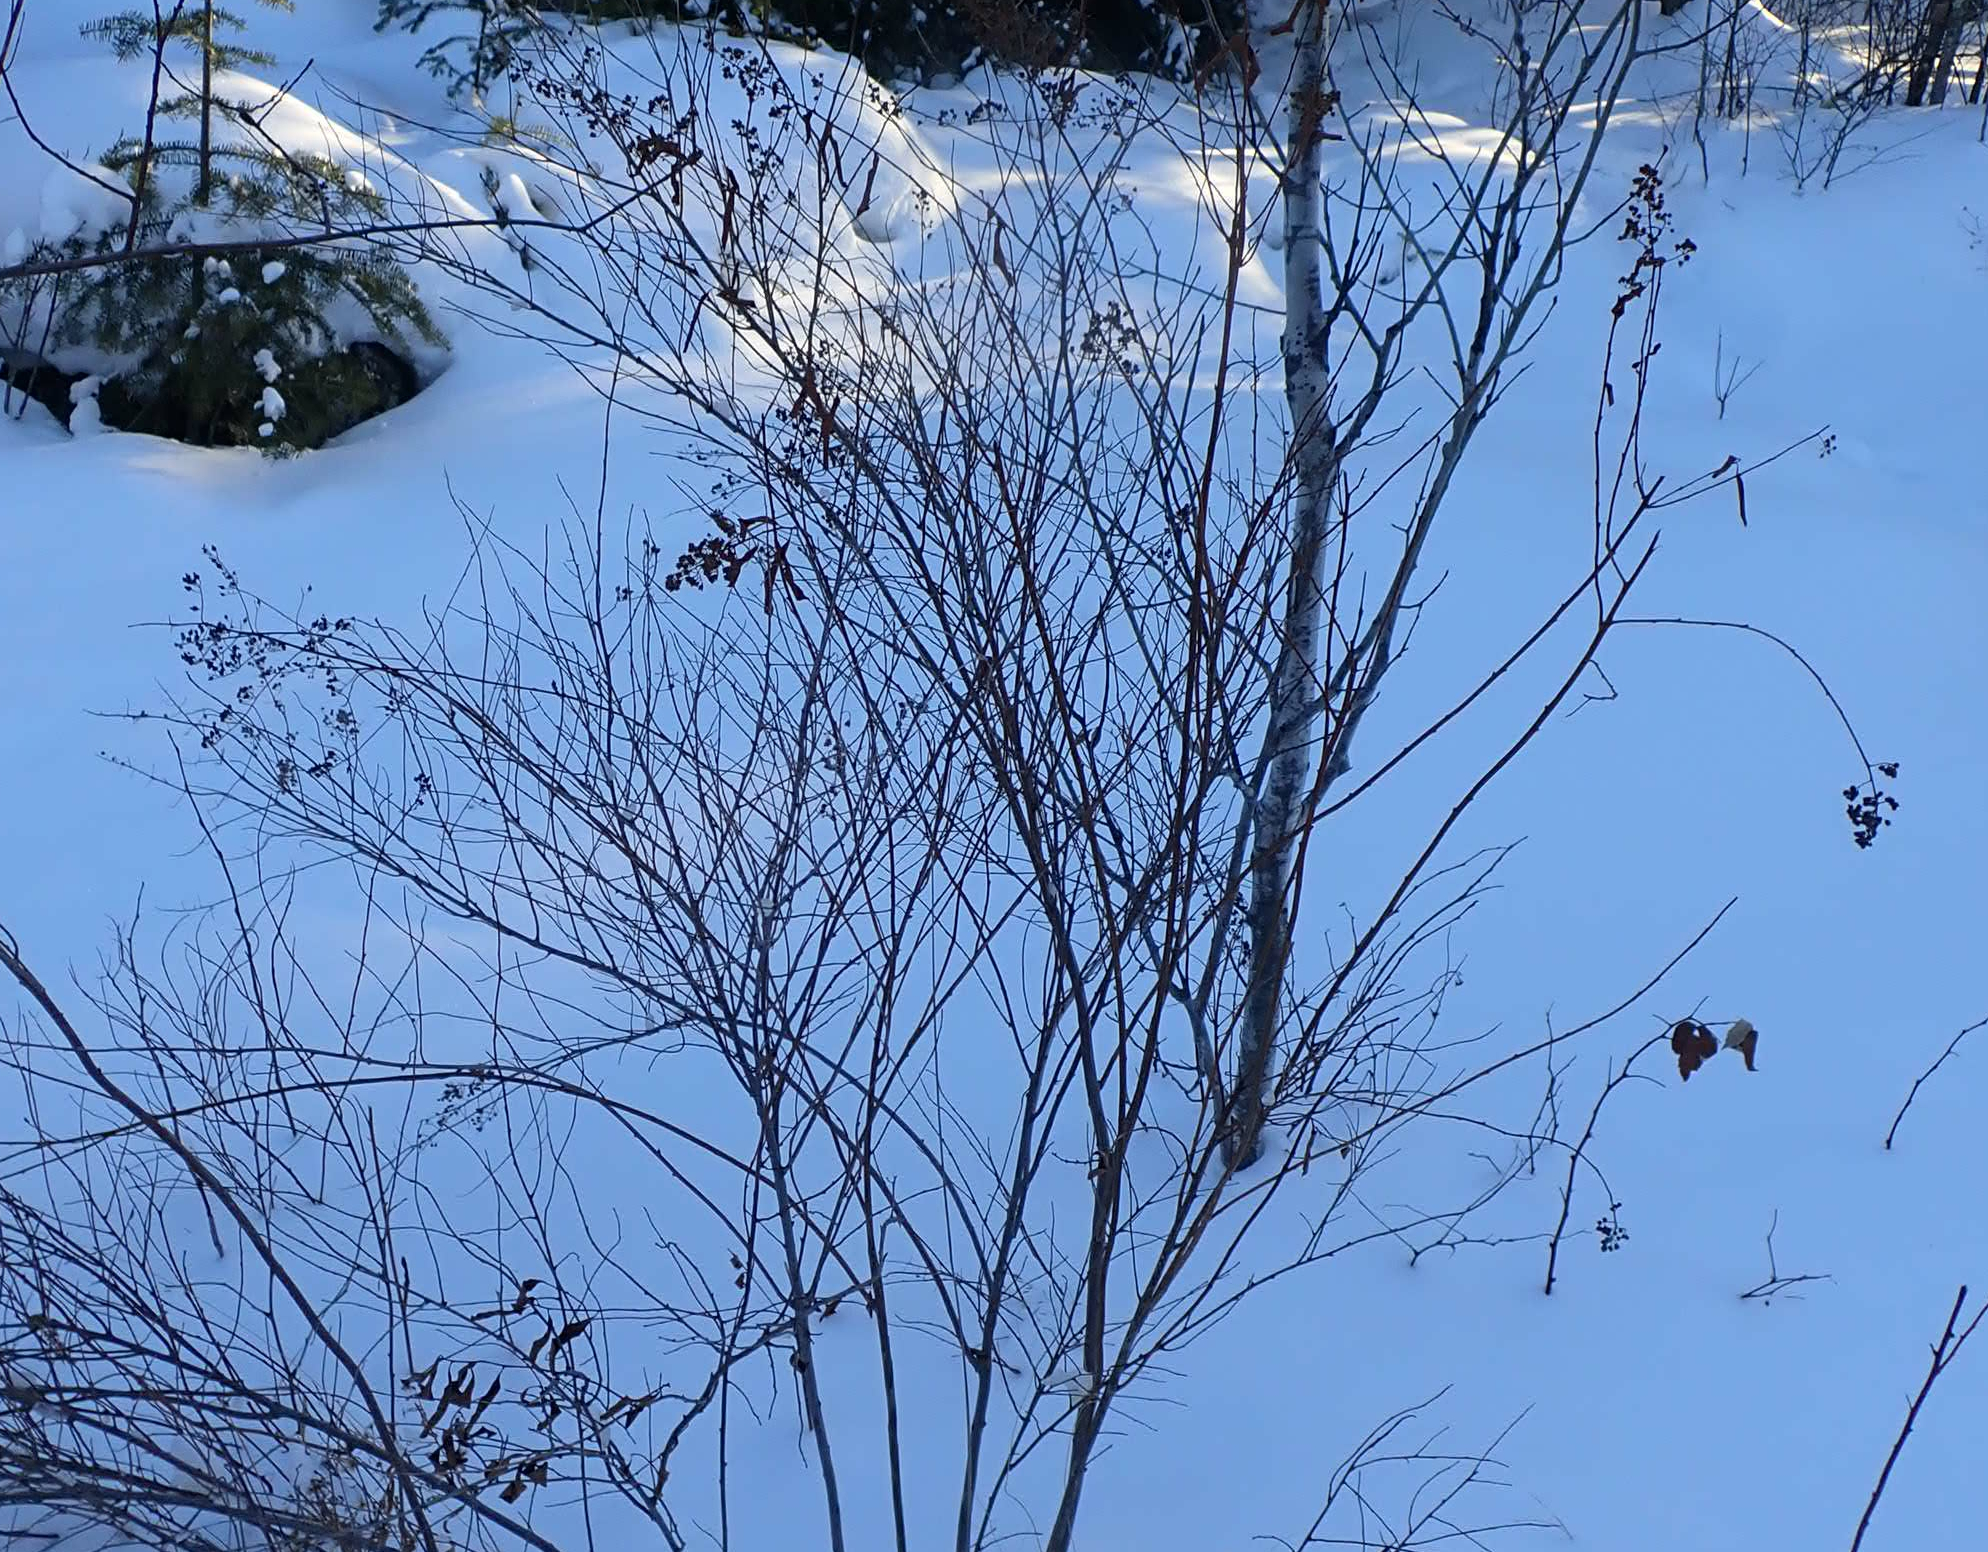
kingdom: Plantae
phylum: Tracheophyta
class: Magnoliopsida
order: Rosales
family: Rosaceae
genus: Spiraea
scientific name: Spiraea alba
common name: Pale bridewort
